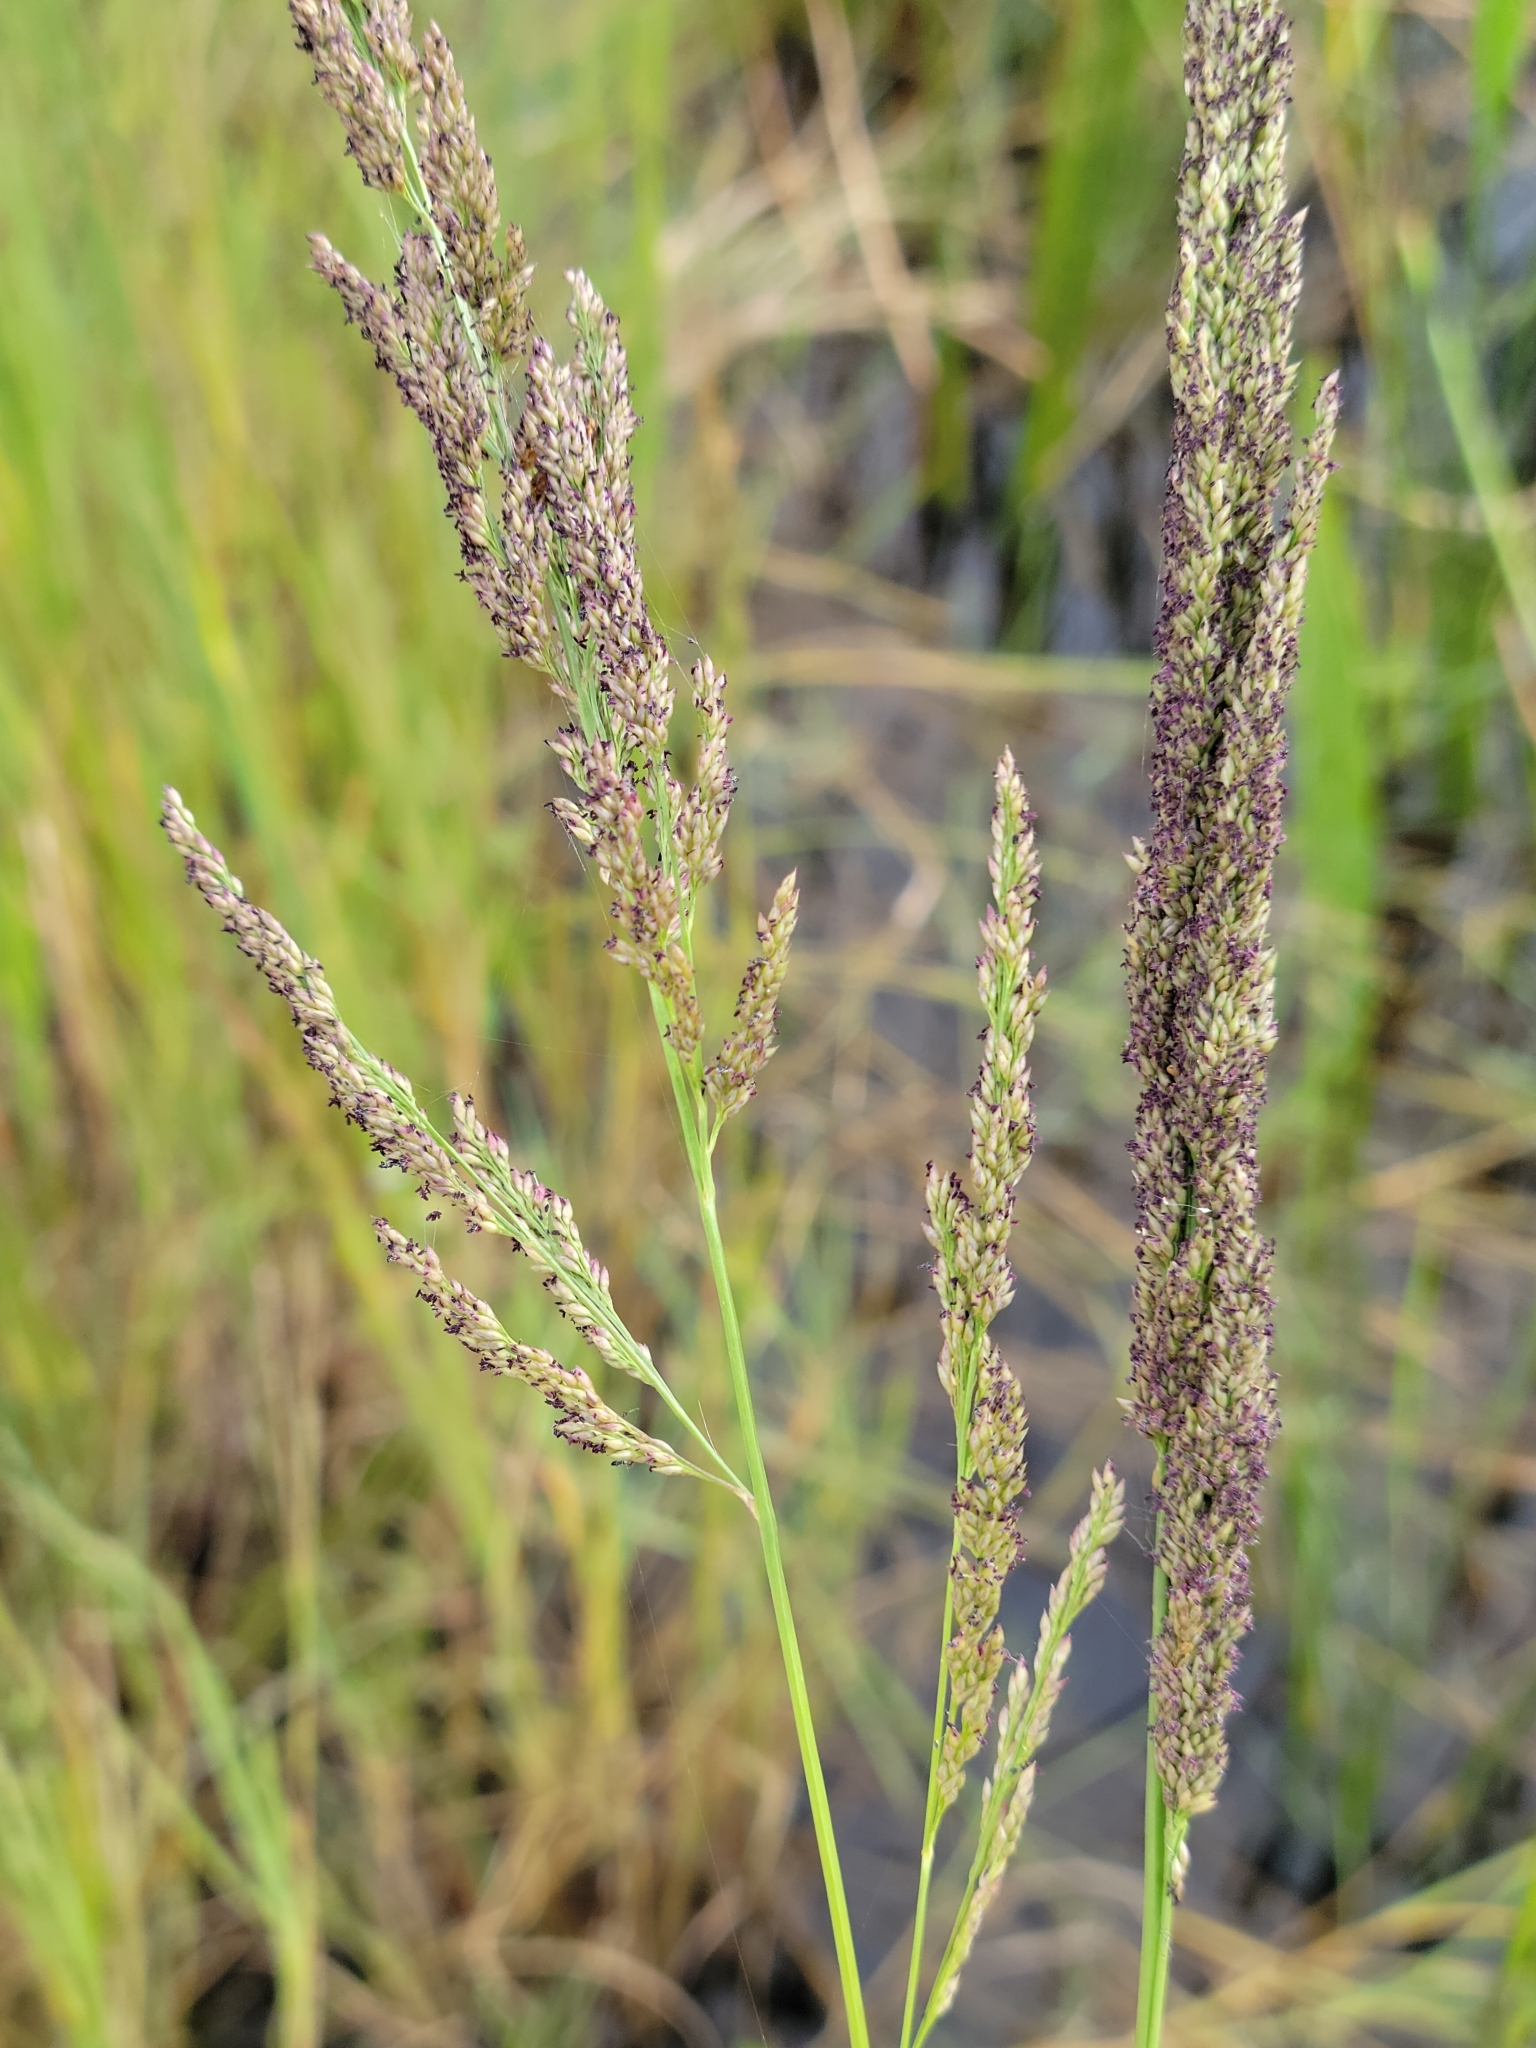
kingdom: Plantae
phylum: Tracheophyta
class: Liliopsida
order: Poales
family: Poaceae
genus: Coleataenia
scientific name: Coleataenia rigidula
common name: Redtop panicgrass
